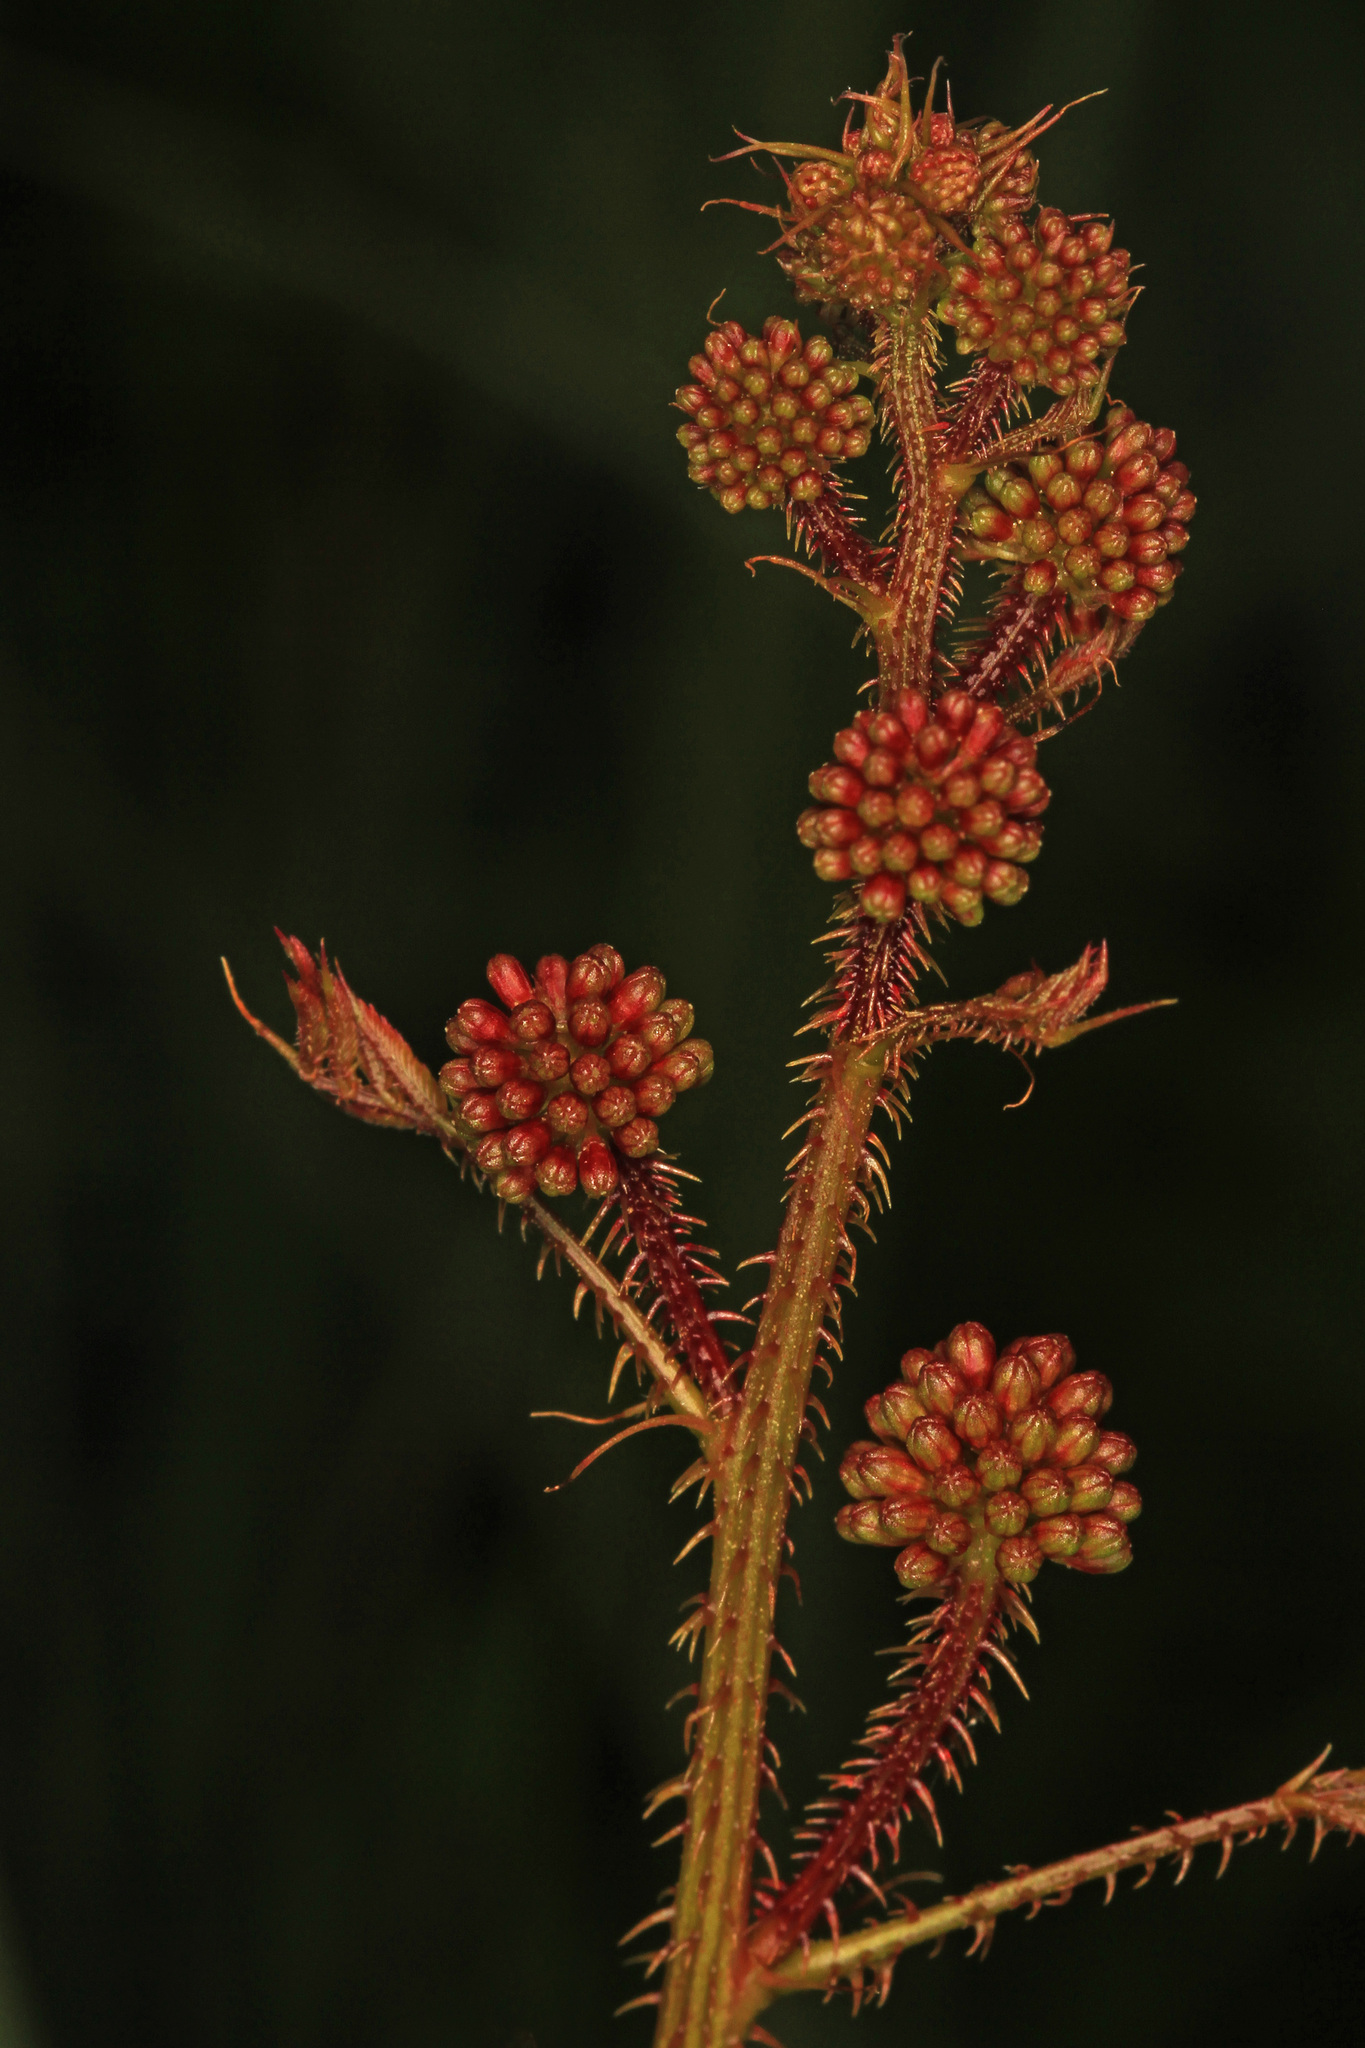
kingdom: Plantae
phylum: Tracheophyta
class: Magnoliopsida
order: Fabales
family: Fabaceae
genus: Mimosa
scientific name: Mimosa quadrivalvis
